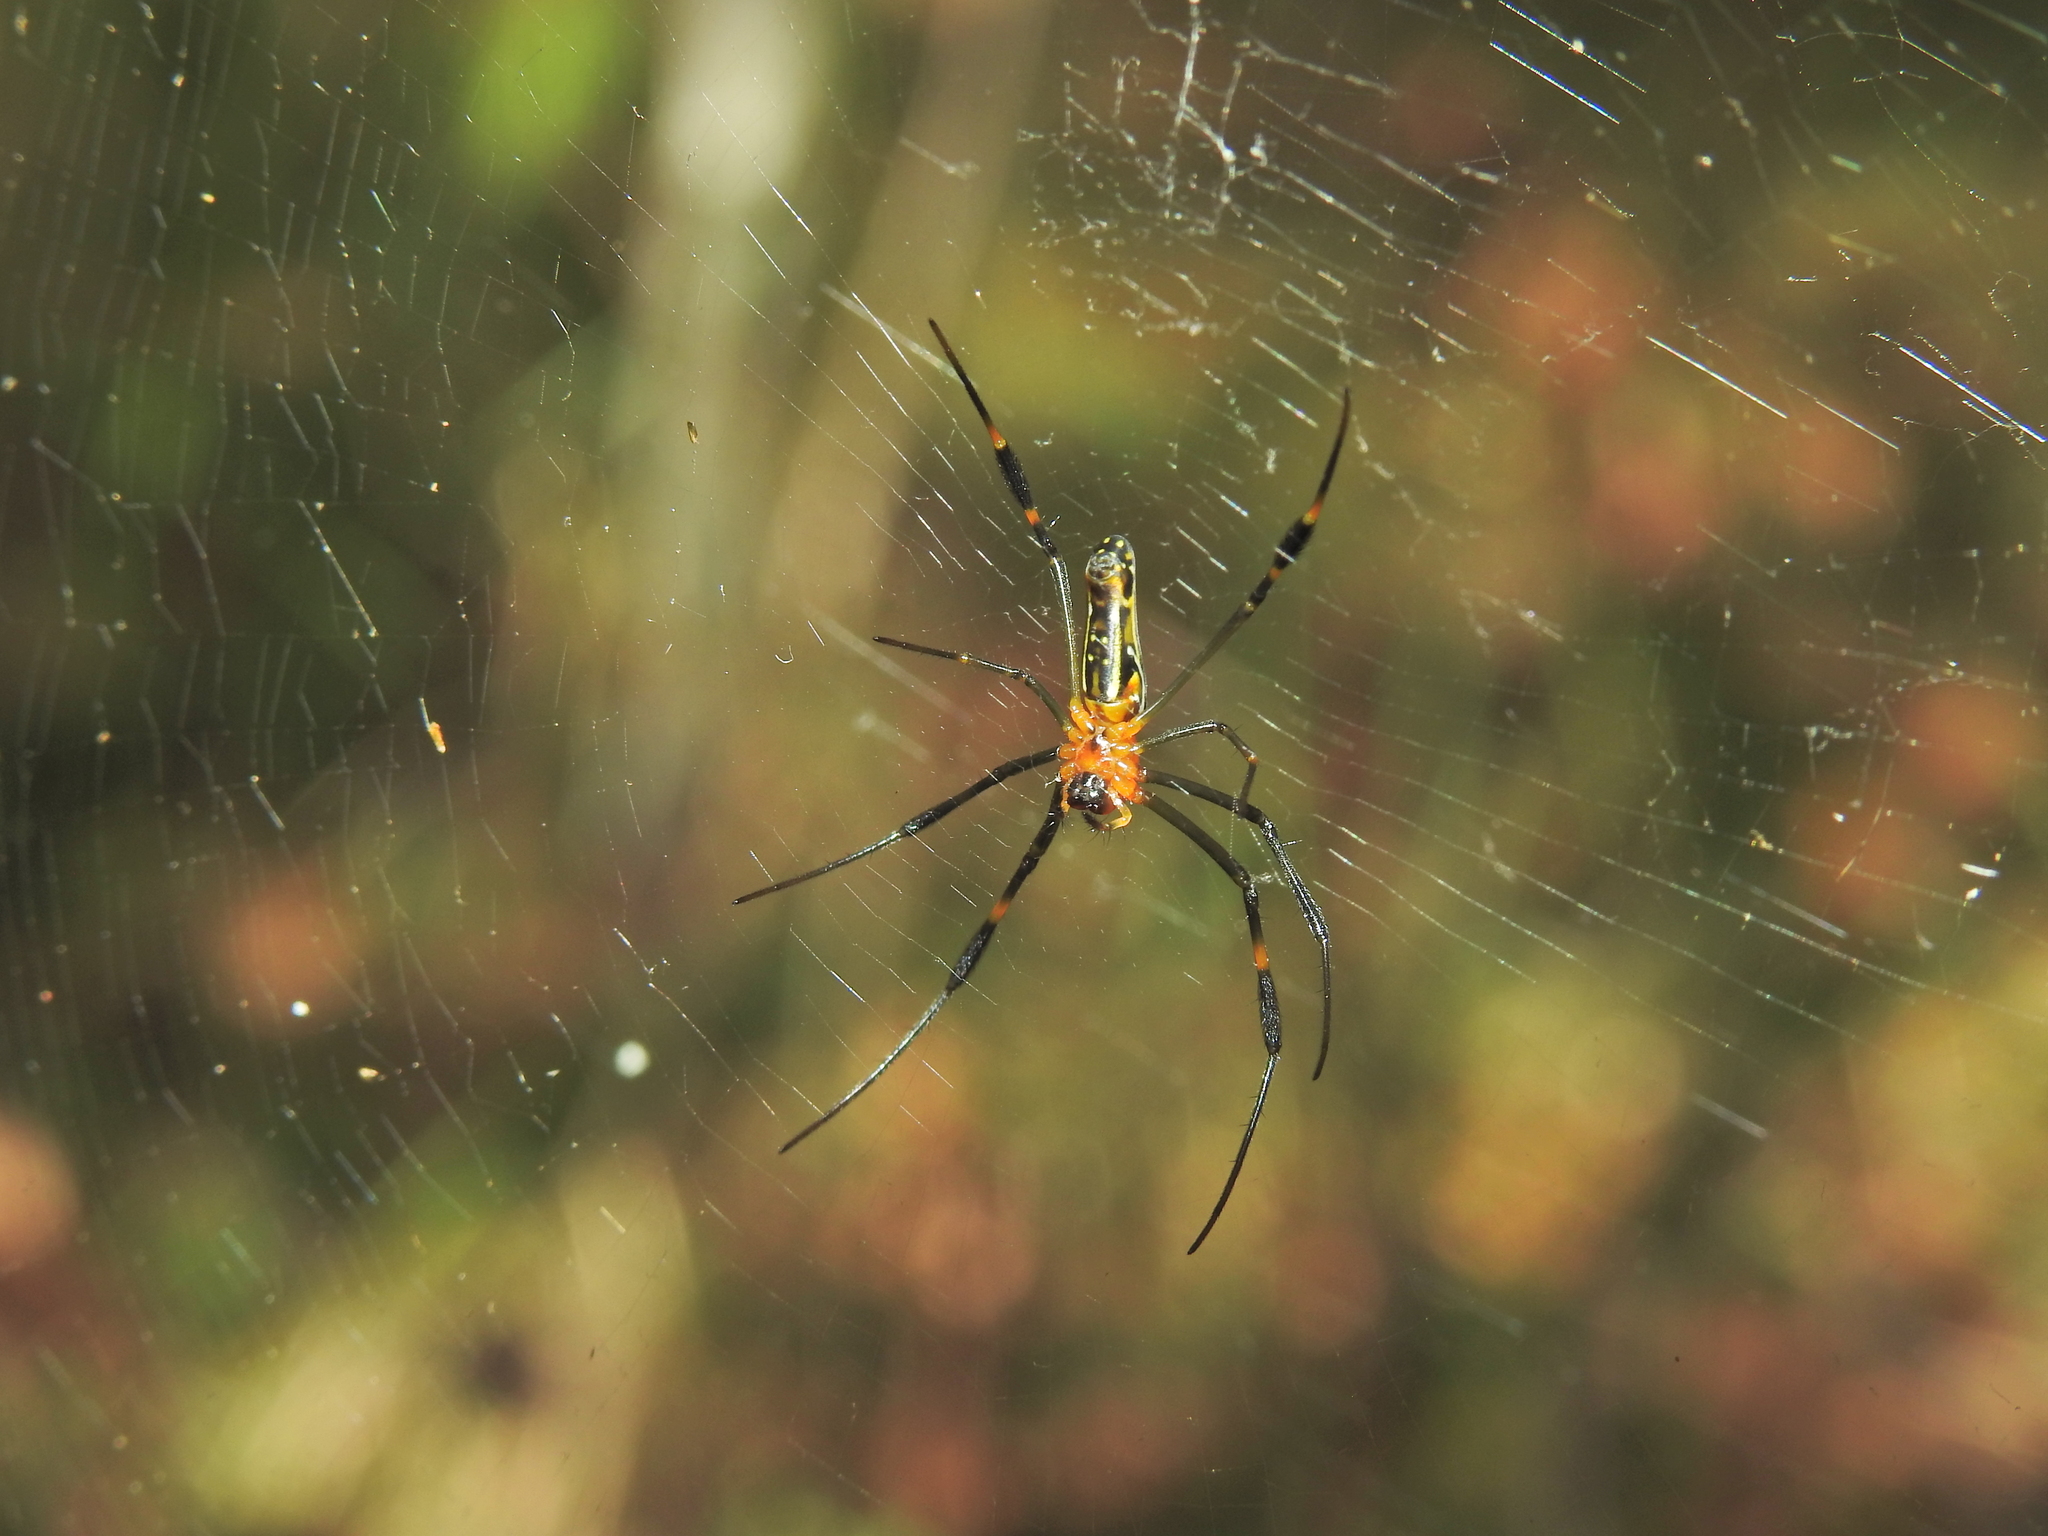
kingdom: Animalia
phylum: Arthropoda
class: Arachnida
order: Araneae
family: Araneidae
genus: Nephila
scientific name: Nephila pilipes
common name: Giant golden orb weaver
